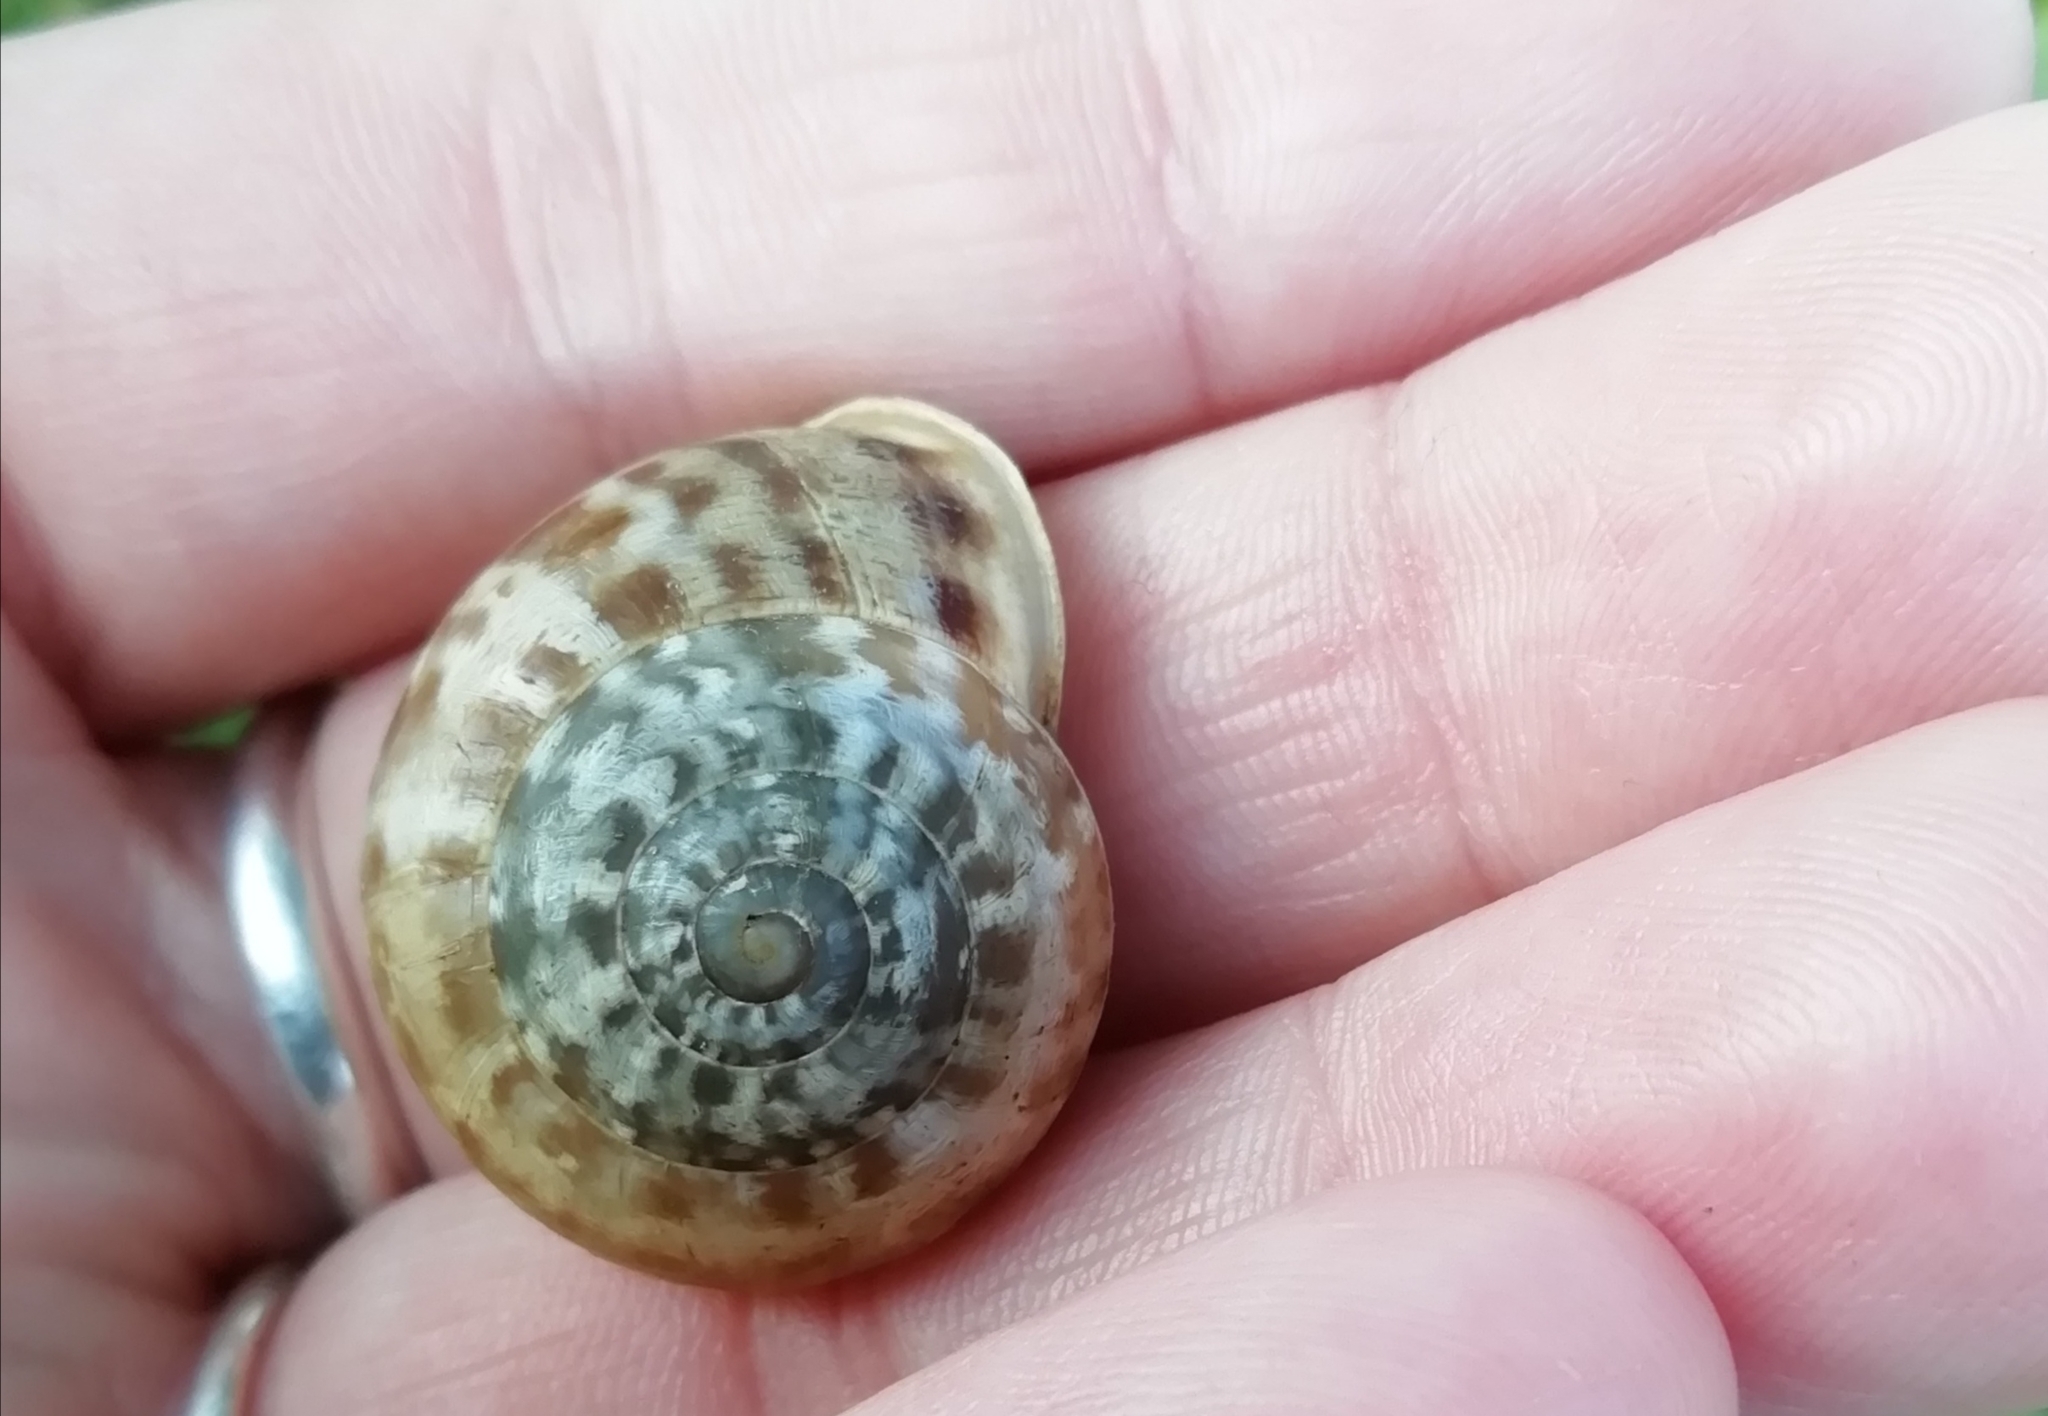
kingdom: Animalia
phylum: Mollusca
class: Gastropoda
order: Stylommatophora
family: Helicidae
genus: Eobania
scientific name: Eobania vermiculata
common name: Chocolateband snail
